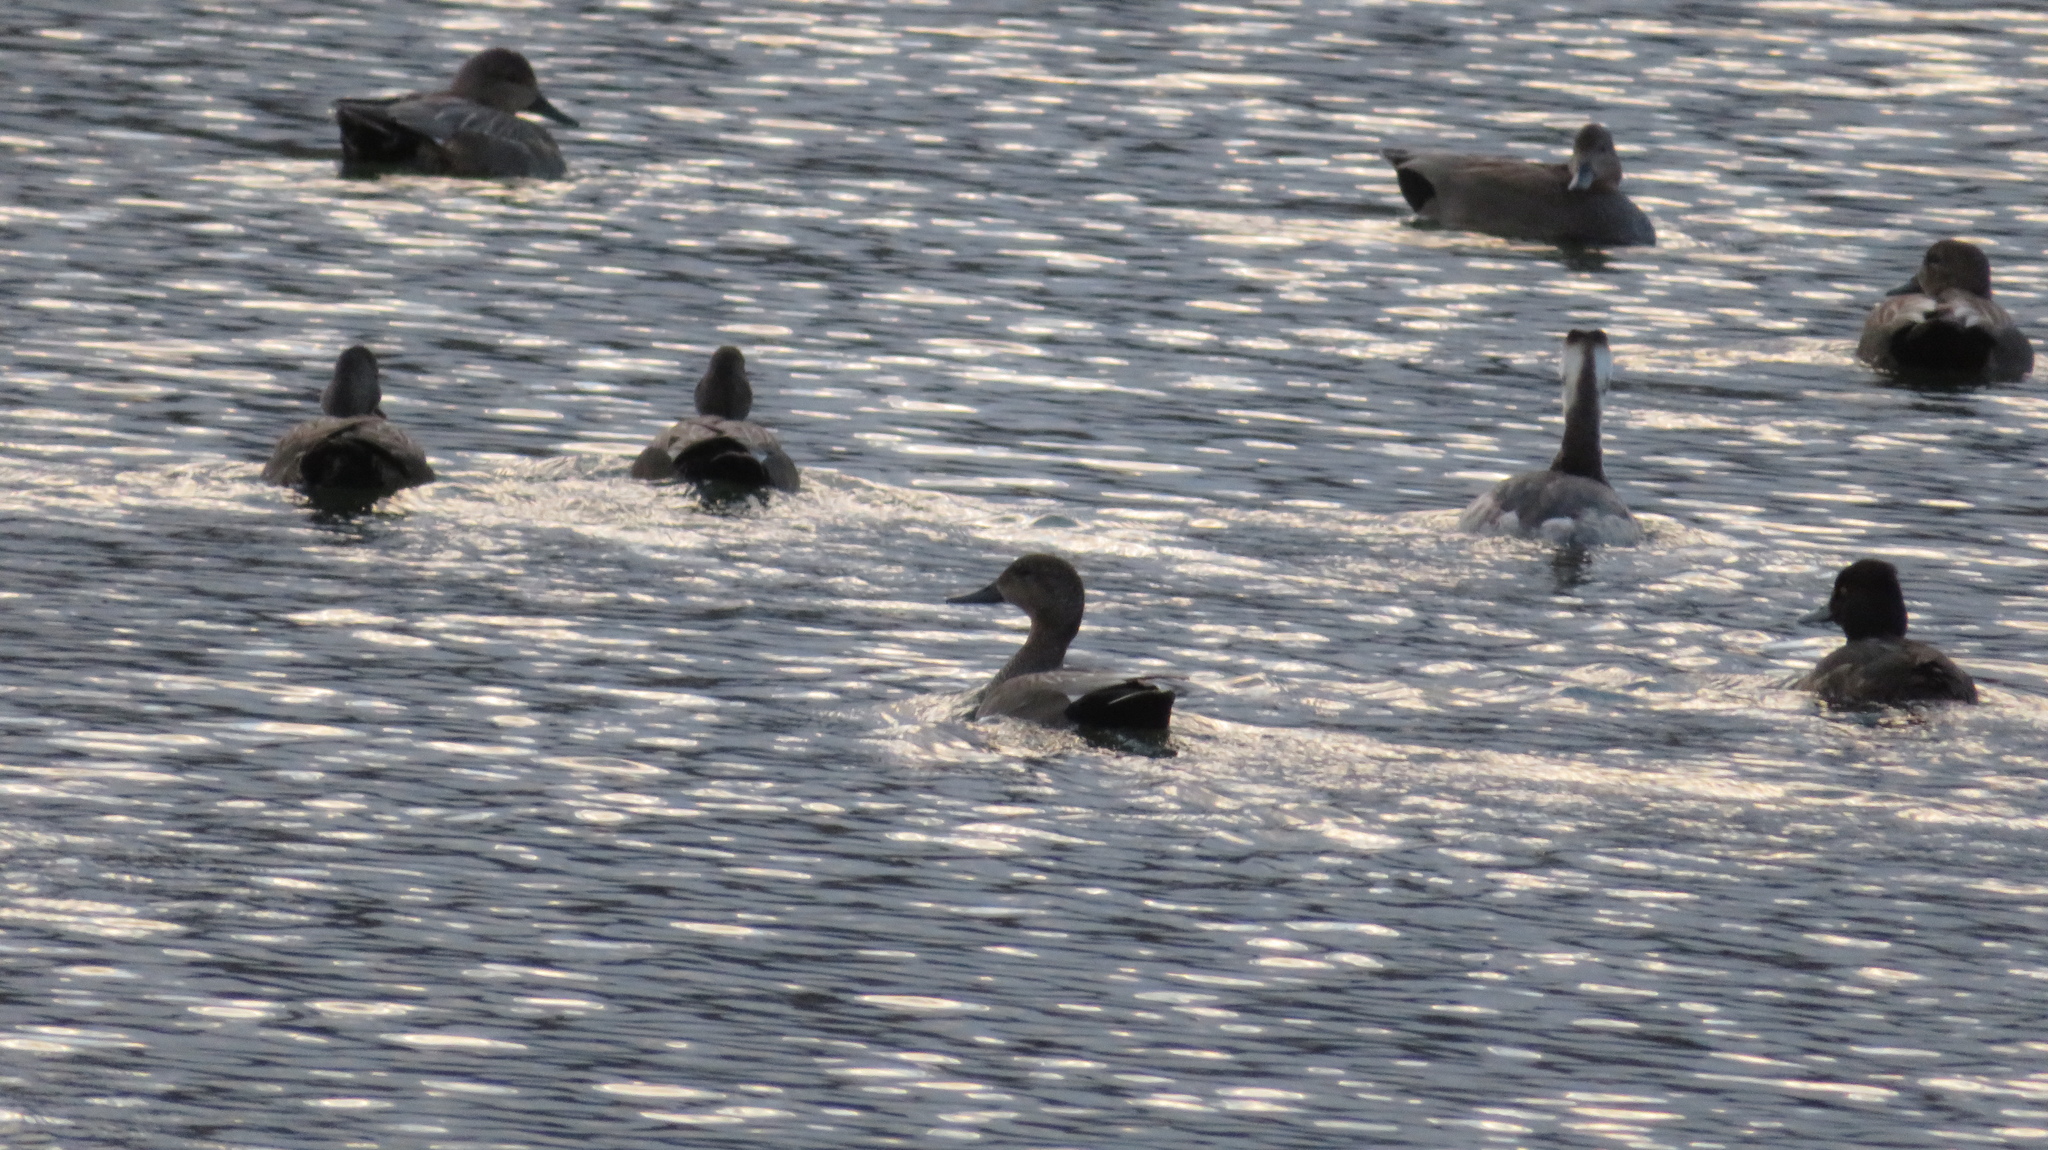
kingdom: Animalia
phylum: Chordata
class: Aves
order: Anseriformes
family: Anatidae
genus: Mareca
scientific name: Mareca strepera
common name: Gadwall
